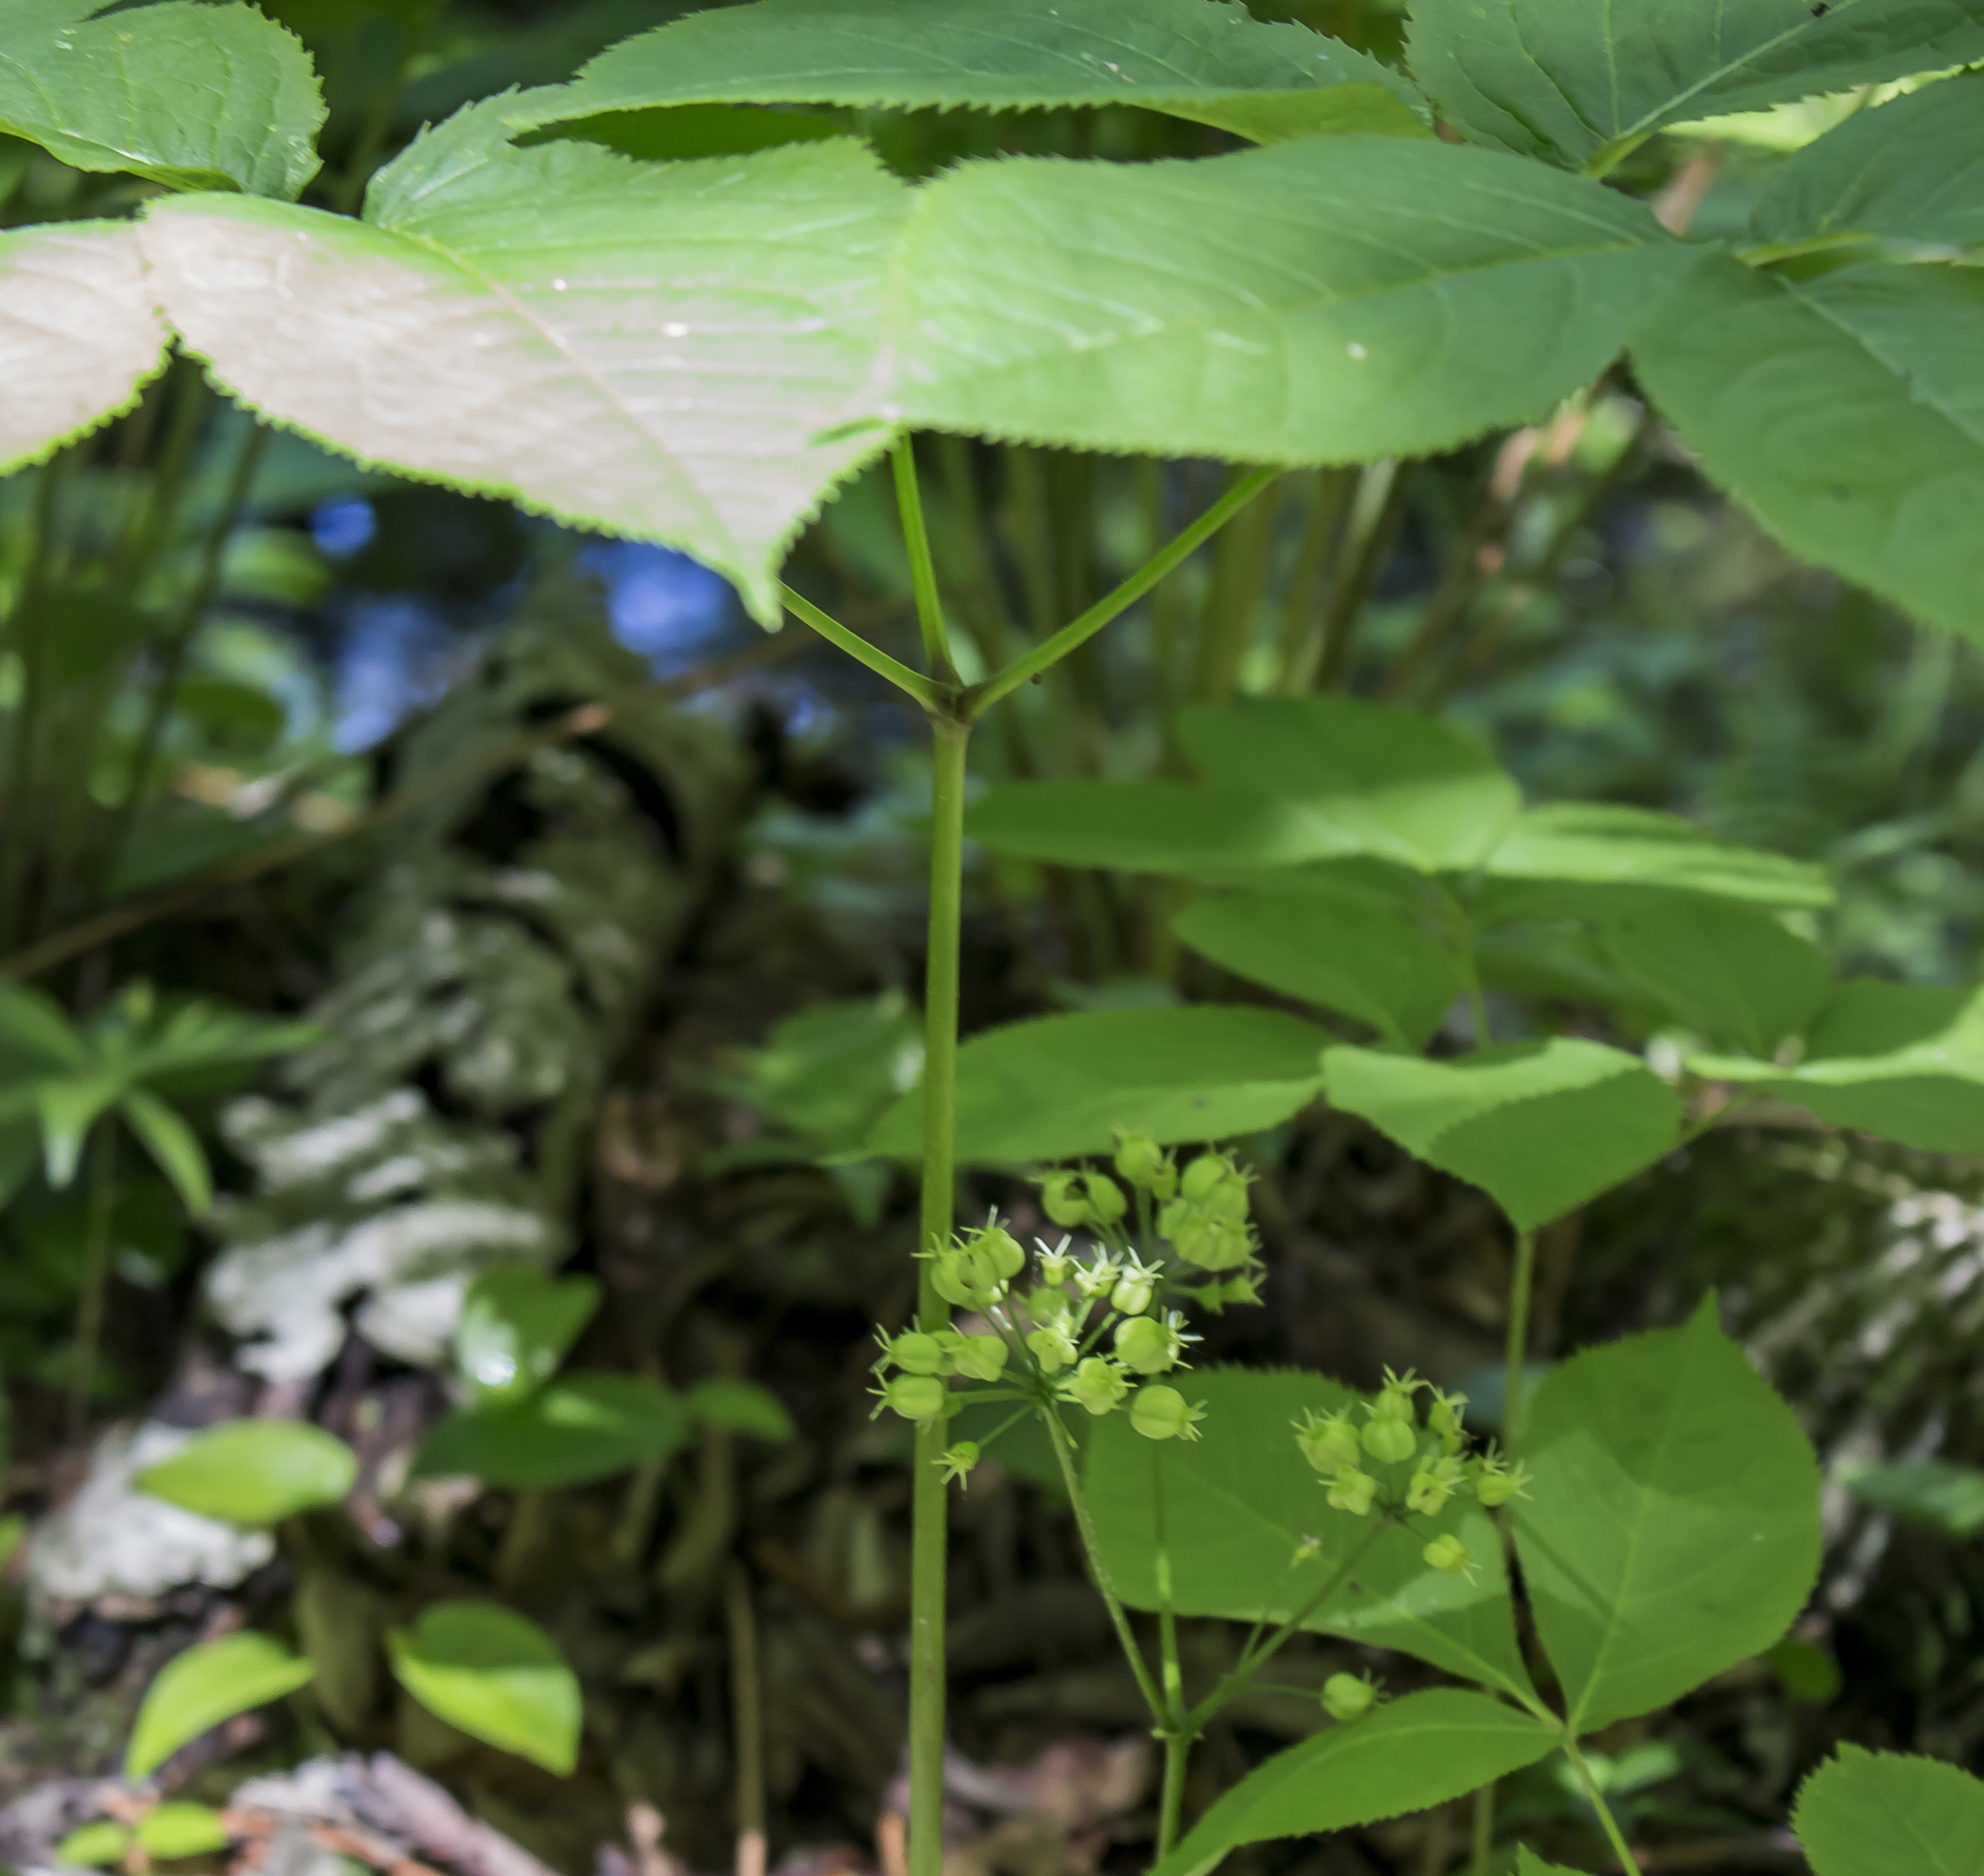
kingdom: Plantae
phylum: Tracheophyta
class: Magnoliopsida
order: Apiales
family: Araliaceae
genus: Aralia
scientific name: Aralia nudicaulis
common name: Wild sarsaparilla
